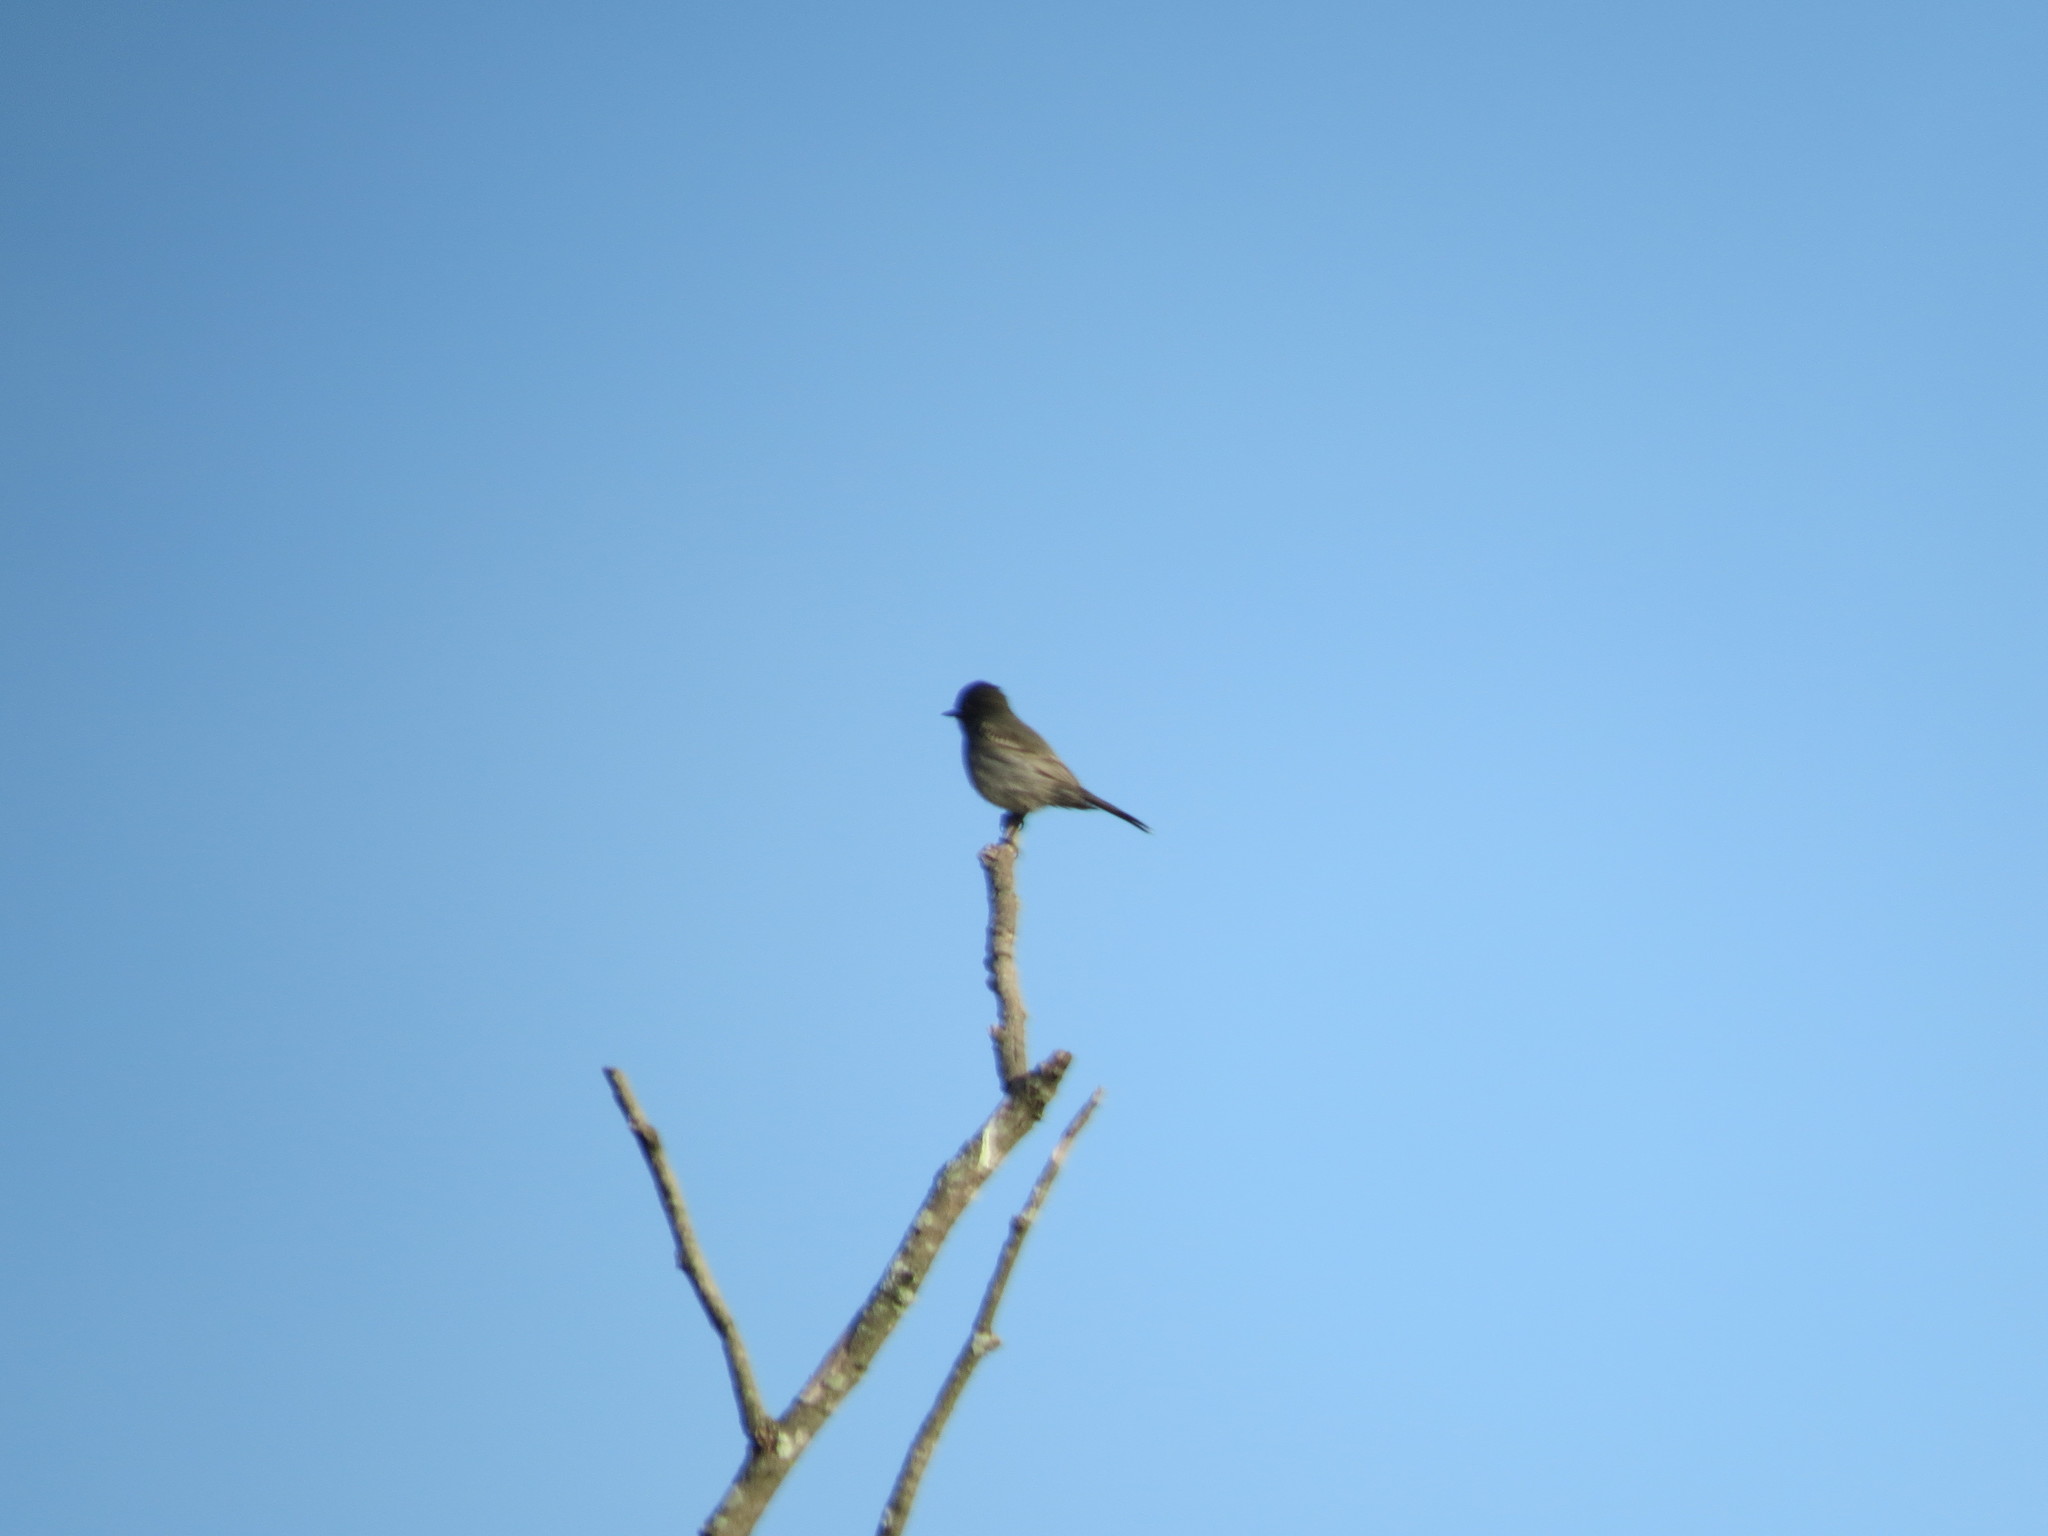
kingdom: Animalia
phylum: Chordata
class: Aves
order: Passeriformes
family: Tyrannidae
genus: Knipolegus
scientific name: Knipolegus striaticeps
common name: Cinereous tyrant
